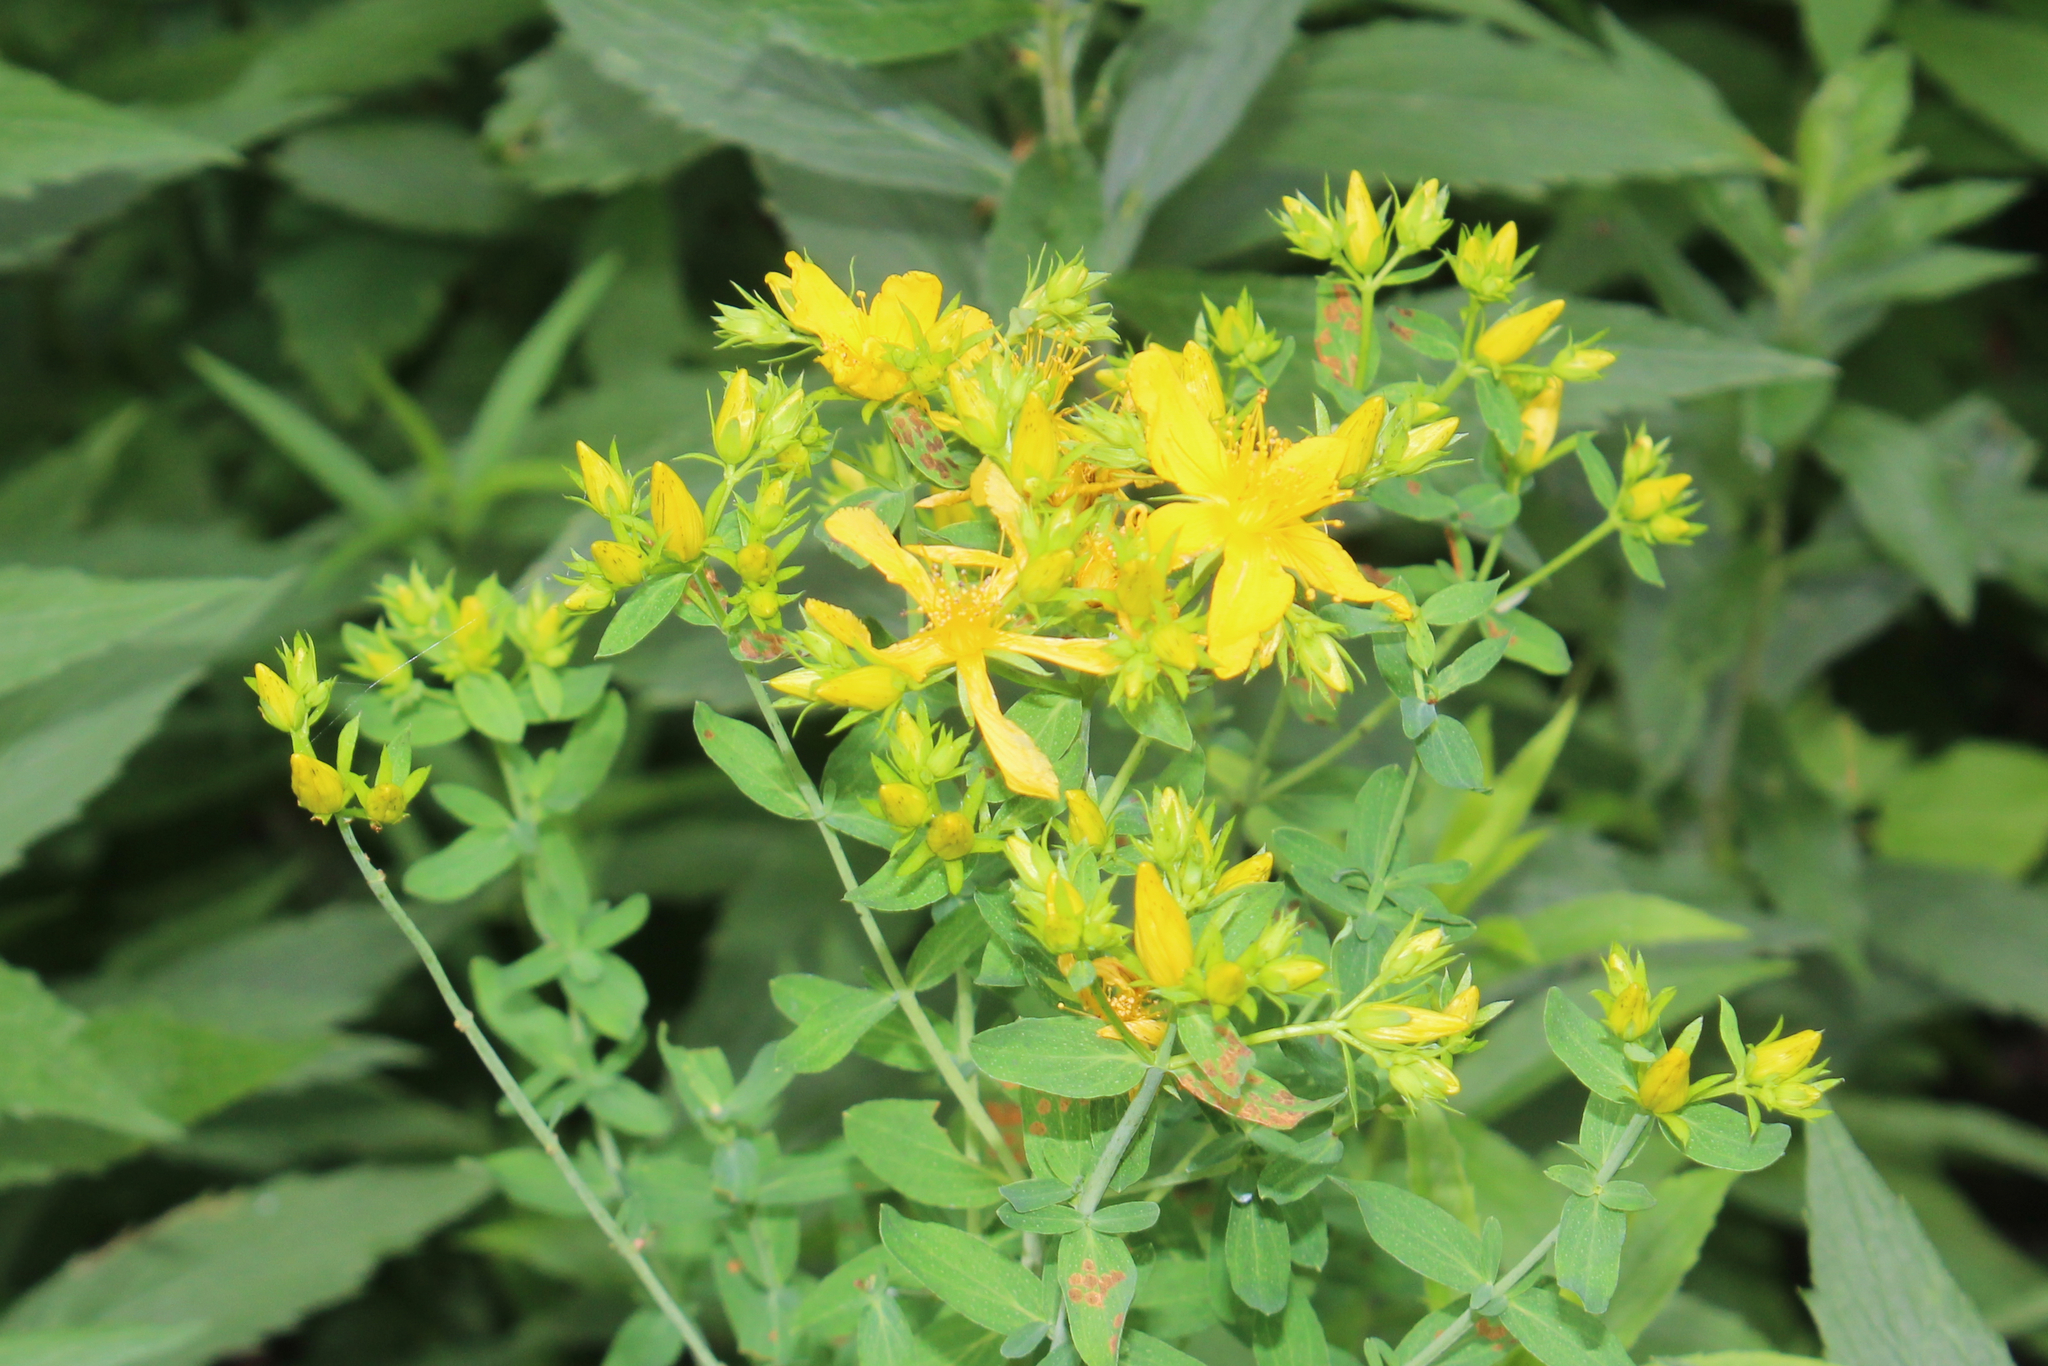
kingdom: Plantae
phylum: Tracheophyta
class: Magnoliopsida
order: Malpighiales
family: Hypericaceae
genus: Hypericum
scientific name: Hypericum perforatum
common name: Common st. johnswort
